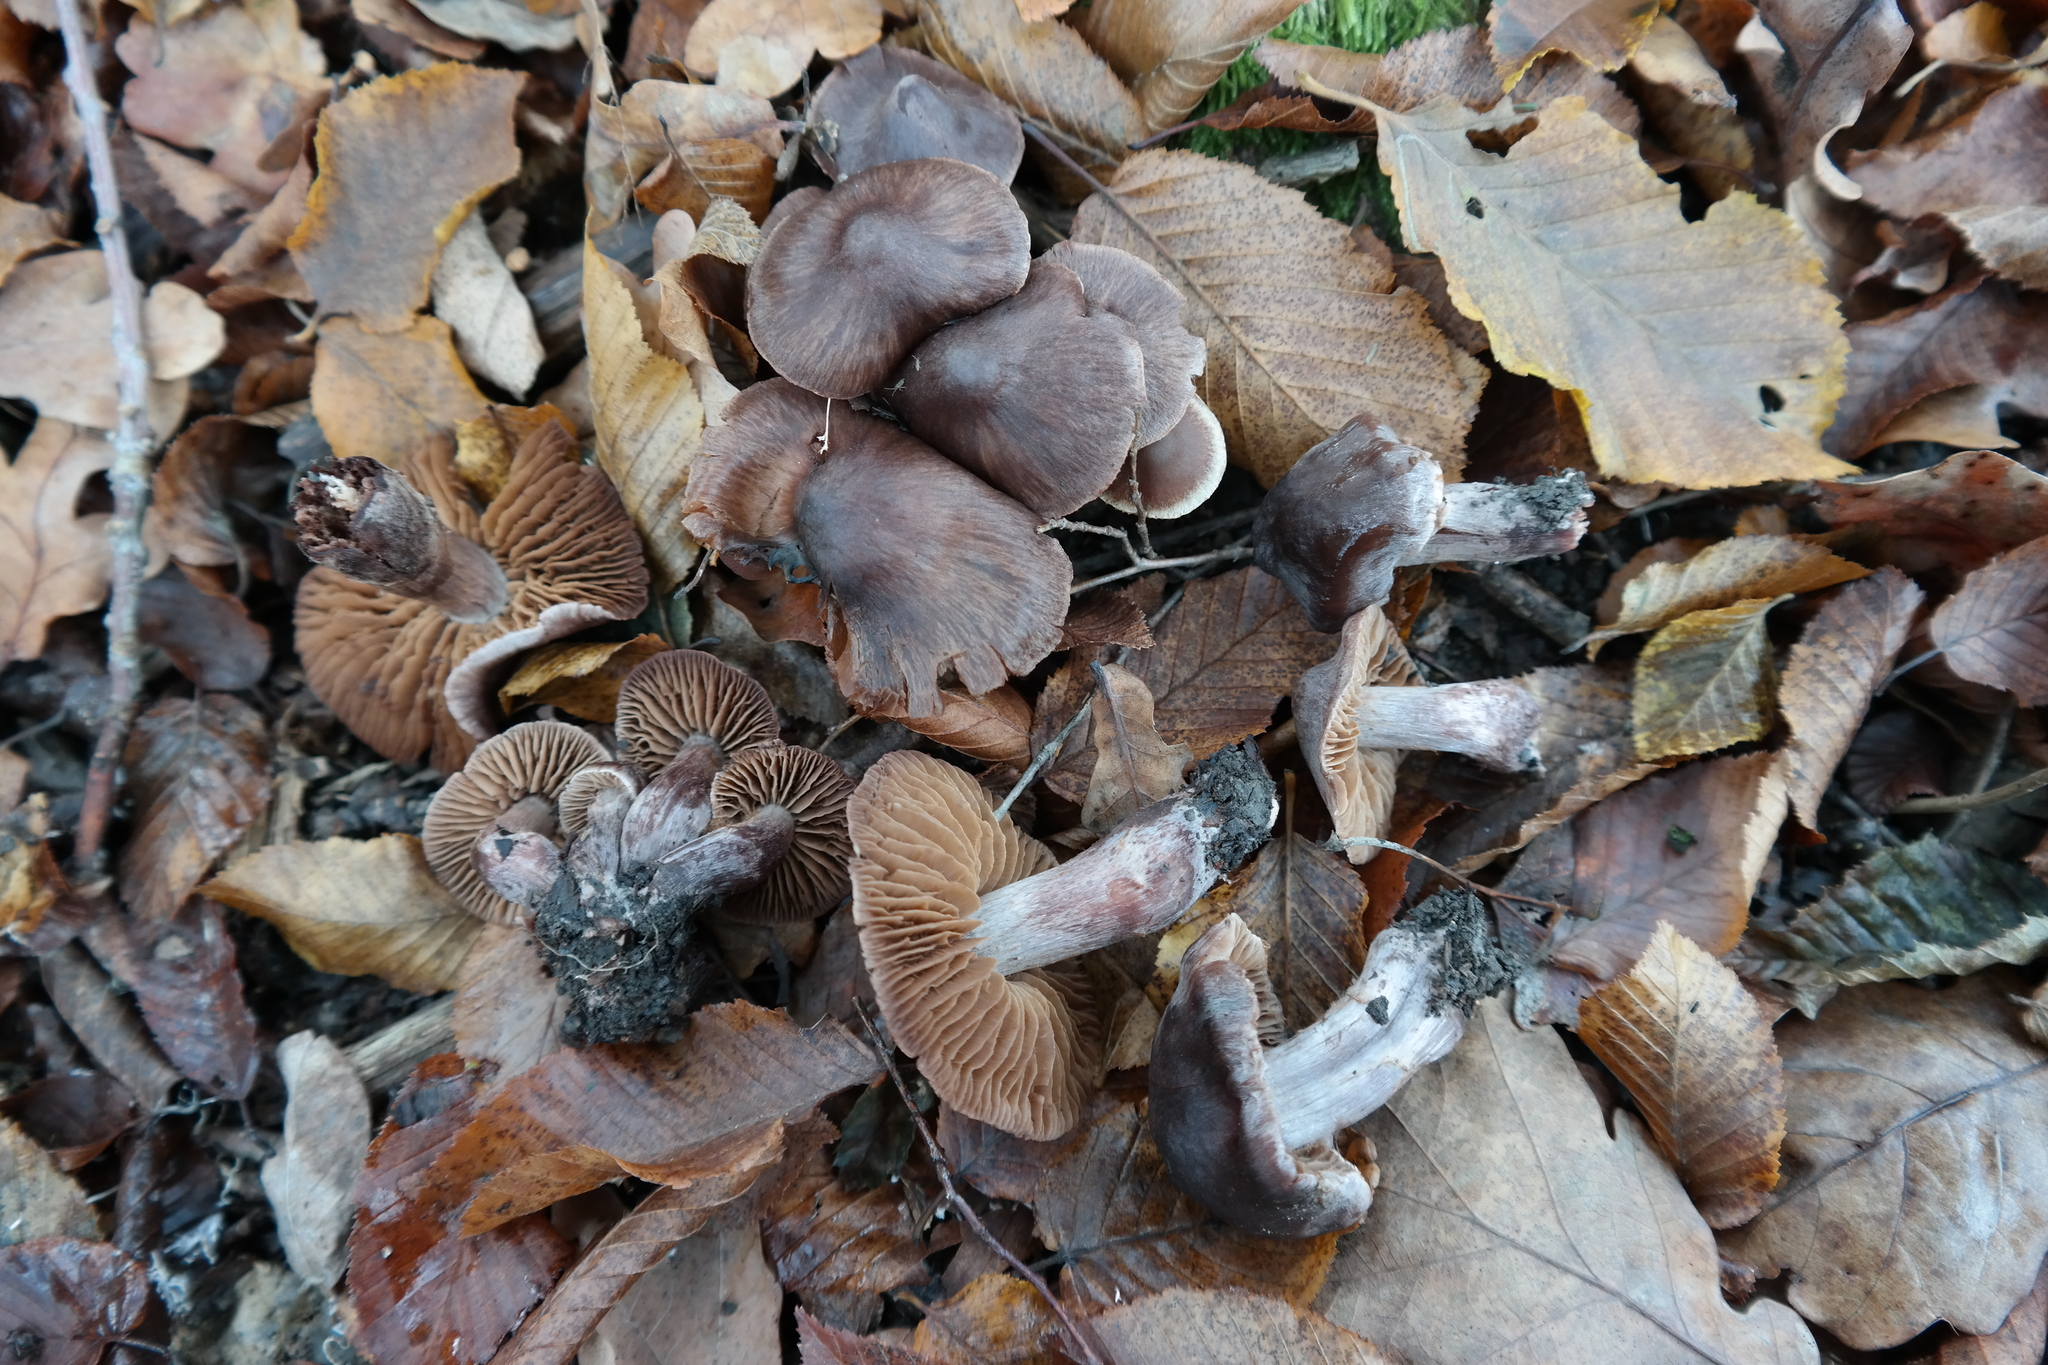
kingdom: Fungi
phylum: Basidiomycota
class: Agaricomycetes
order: Agaricales
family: Cortinariaceae
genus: Cortinarius
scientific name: Cortinarius caliginosus
